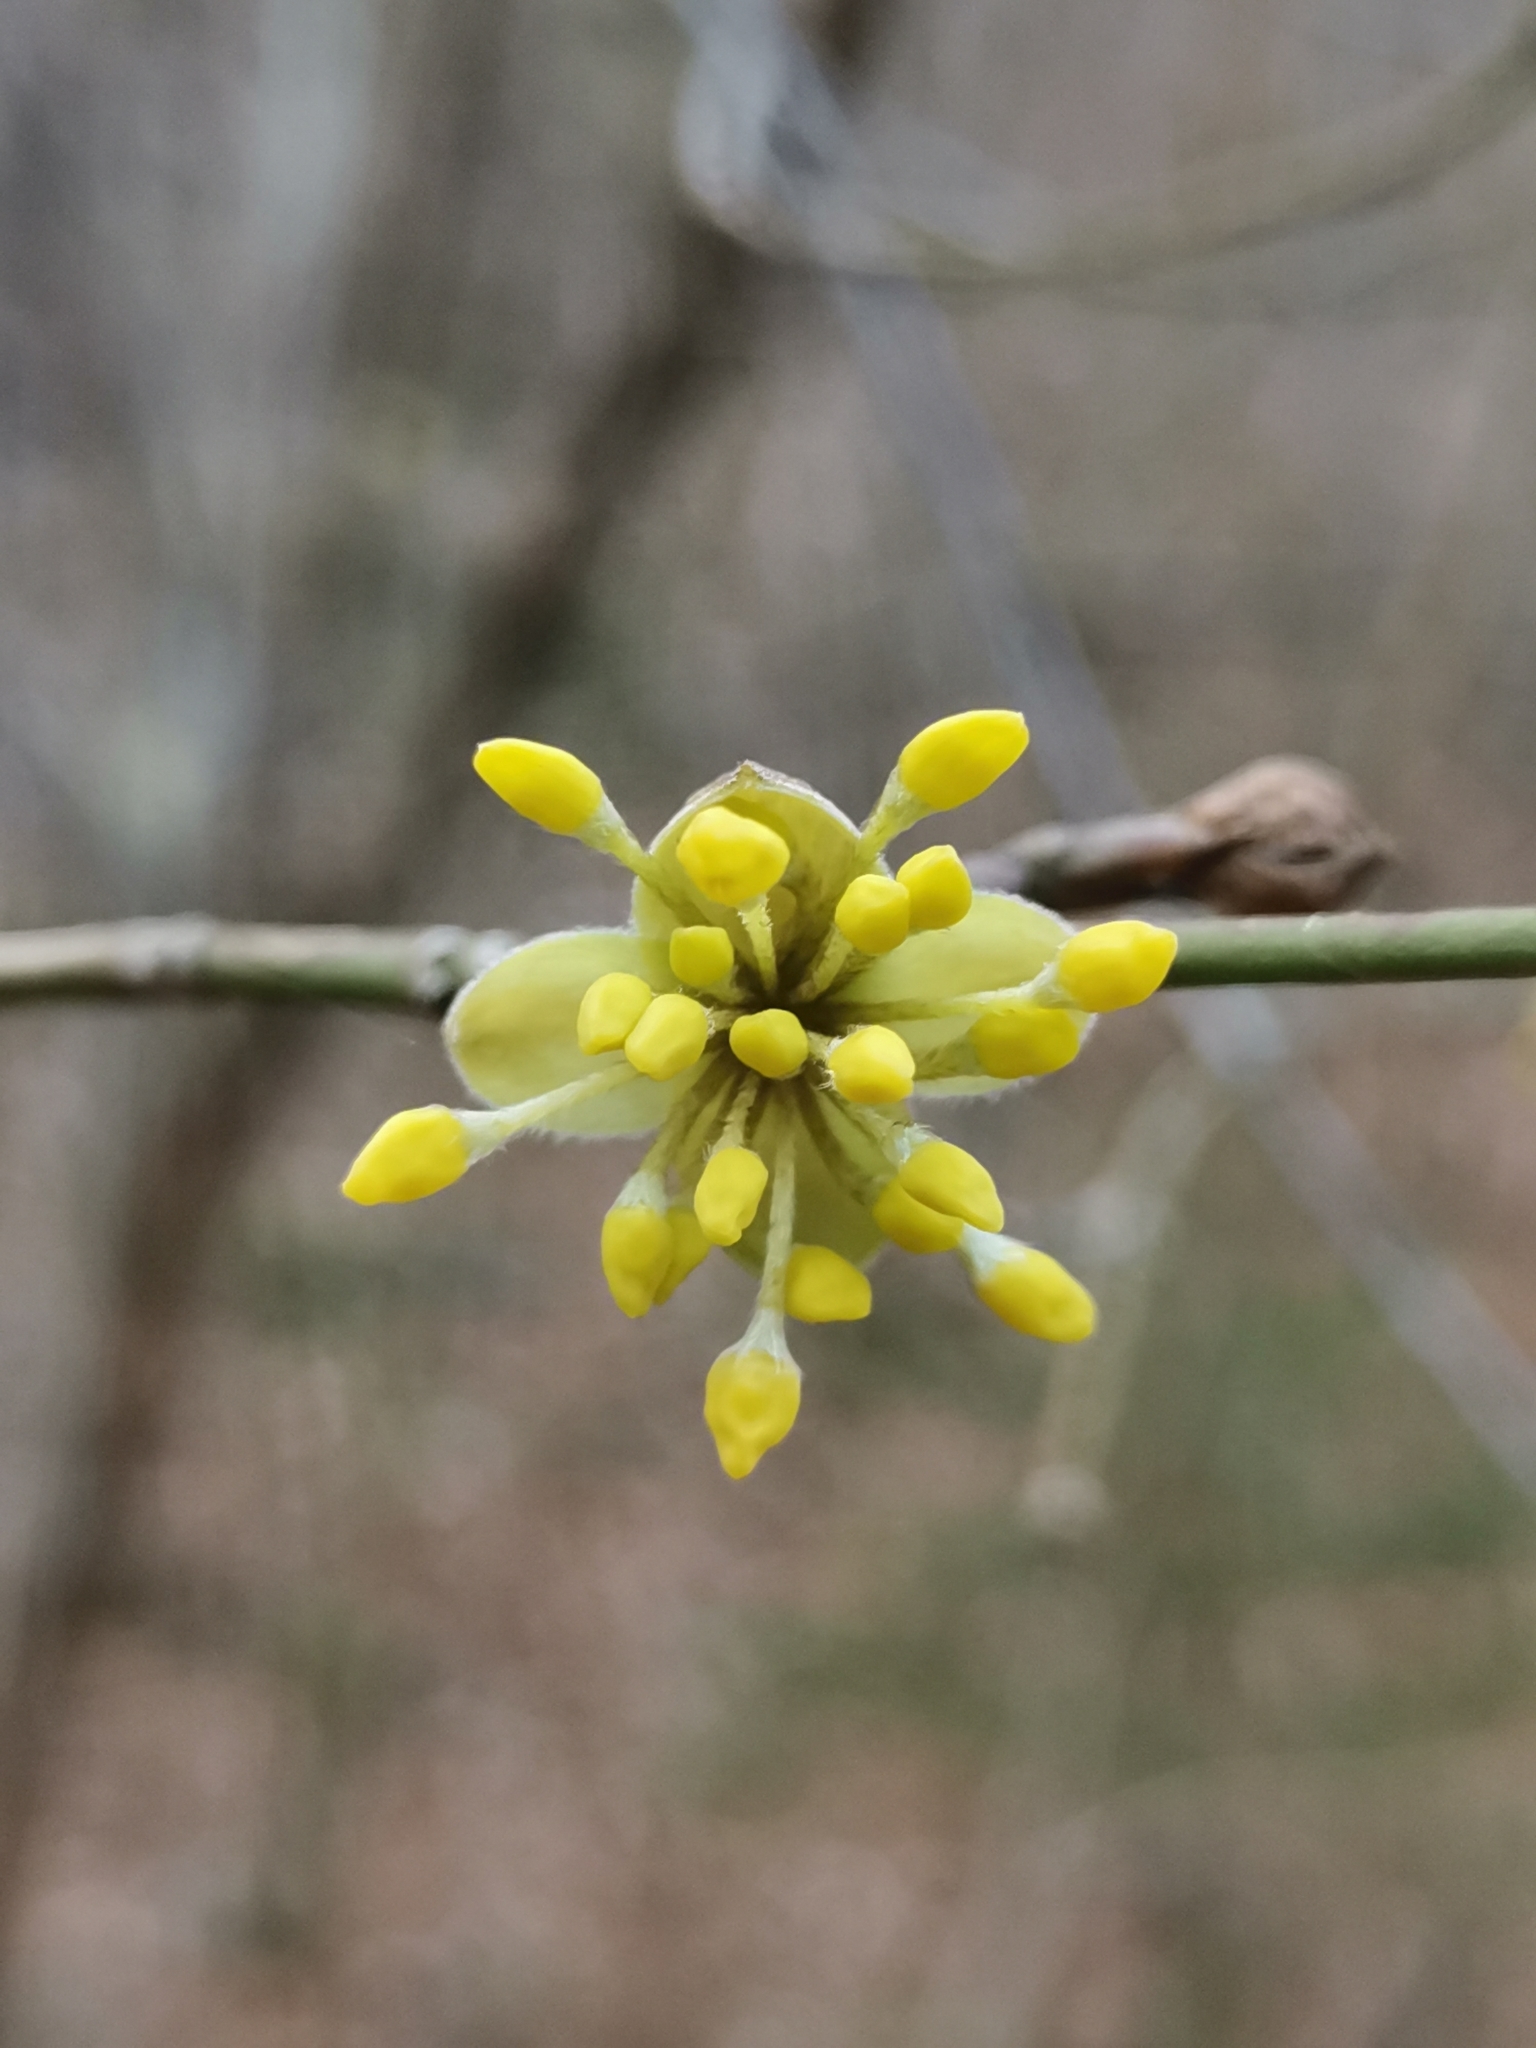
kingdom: Plantae
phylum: Tracheophyta
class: Magnoliopsida
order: Cornales
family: Cornaceae
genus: Cornus
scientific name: Cornus mas
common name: Cornelian-cherry
